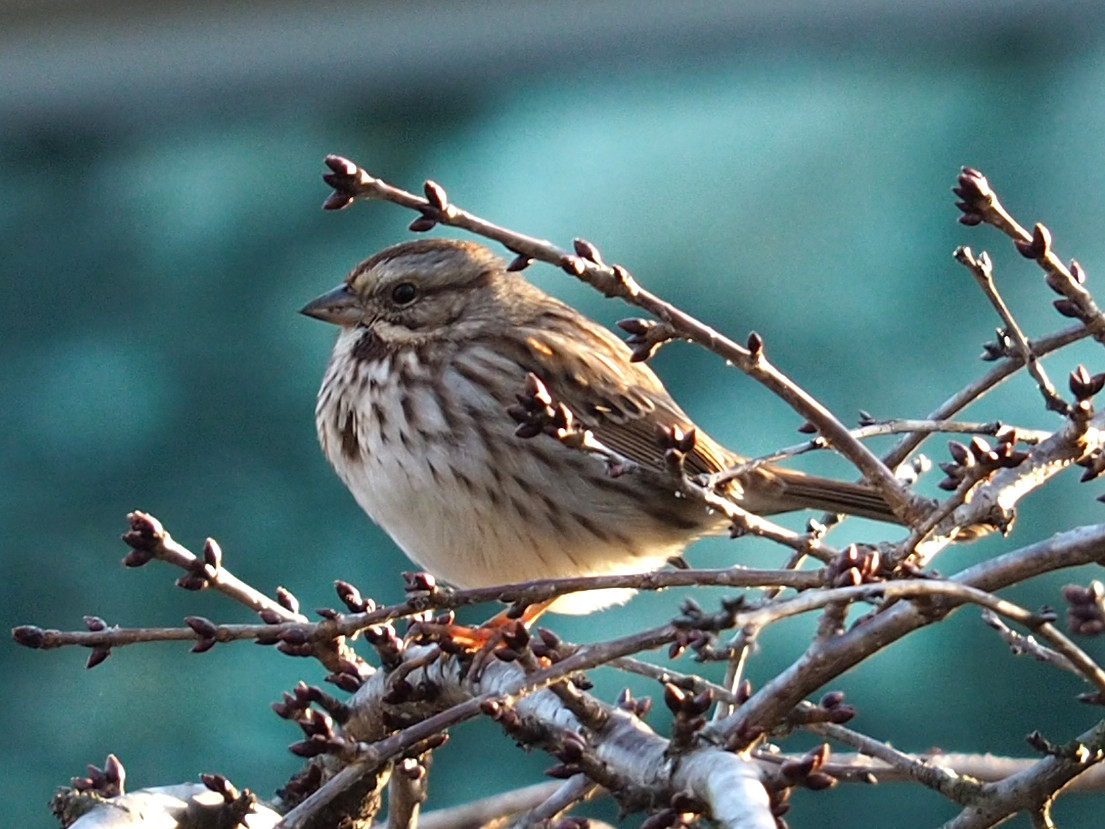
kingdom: Animalia
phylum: Chordata
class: Aves
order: Passeriformes
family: Passerellidae
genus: Melospiza
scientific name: Melospiza melodia
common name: Song sparrow
